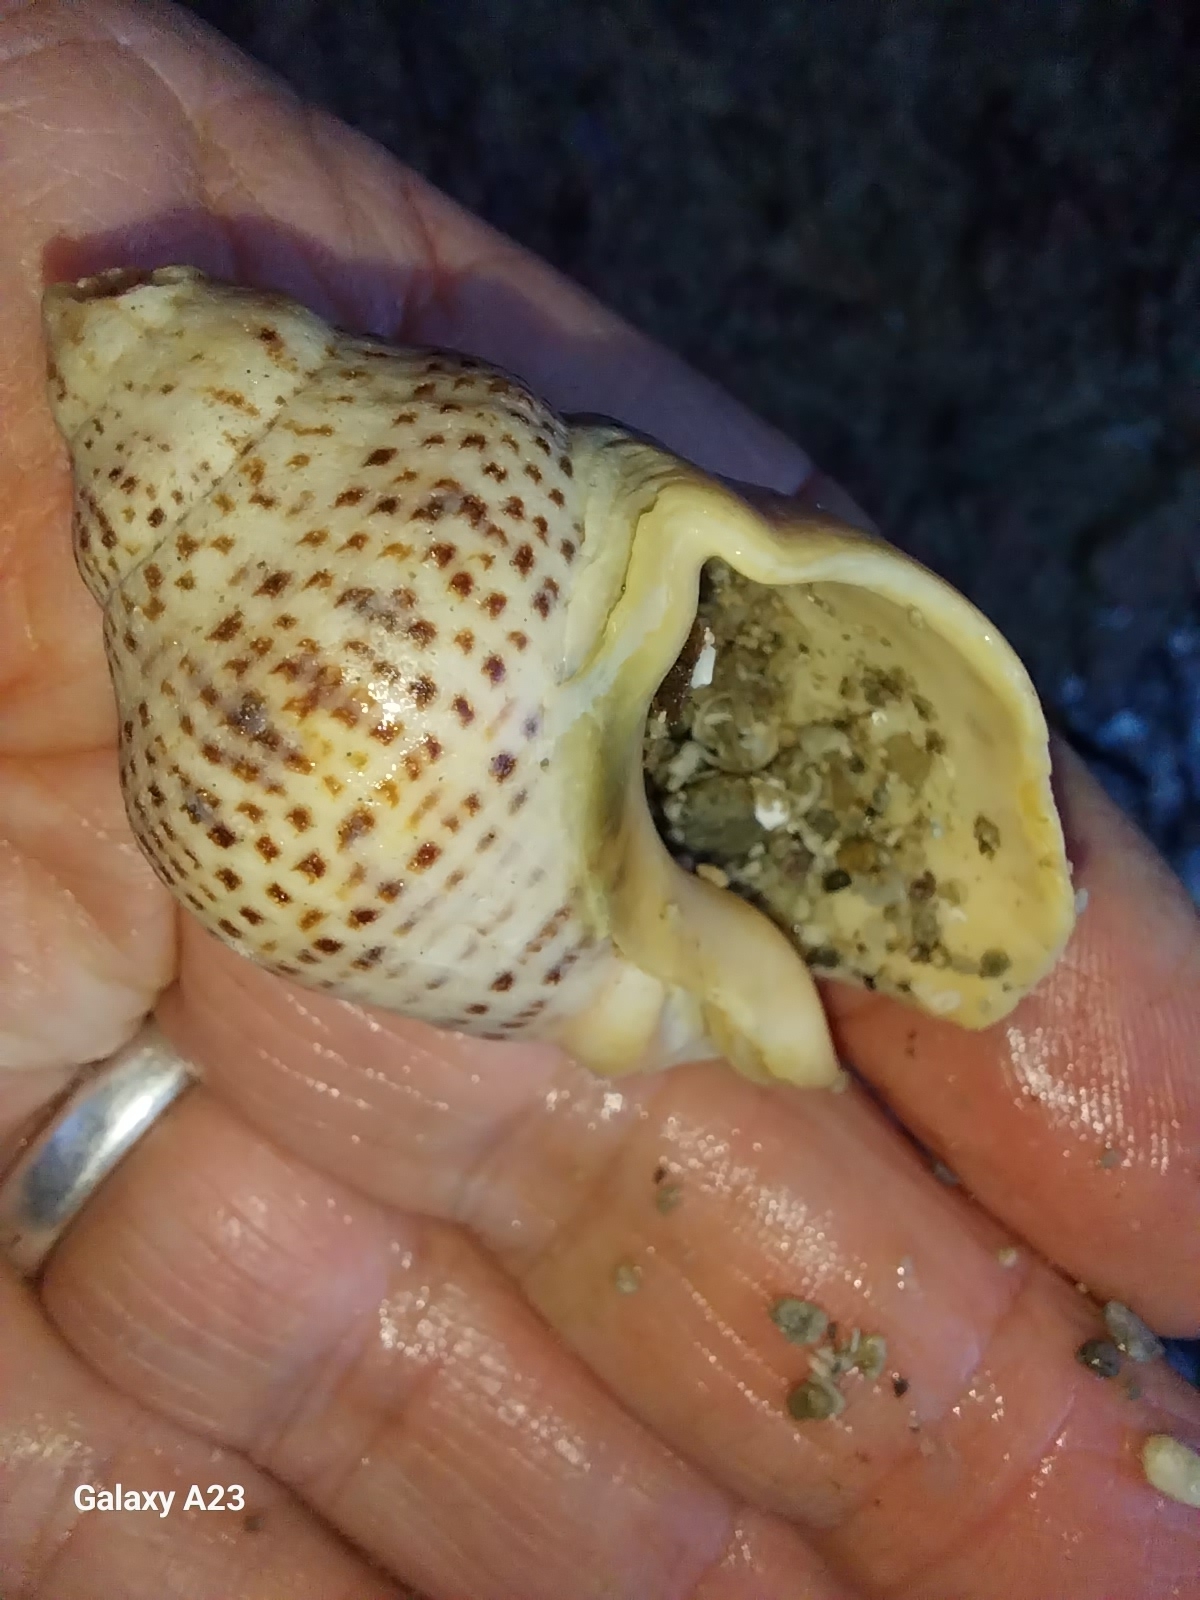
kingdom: Animalia
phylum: Mollusca
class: Gastropoda
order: Neogastropoda
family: Cominellidae
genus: Cominella
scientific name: Cominella adspersa
